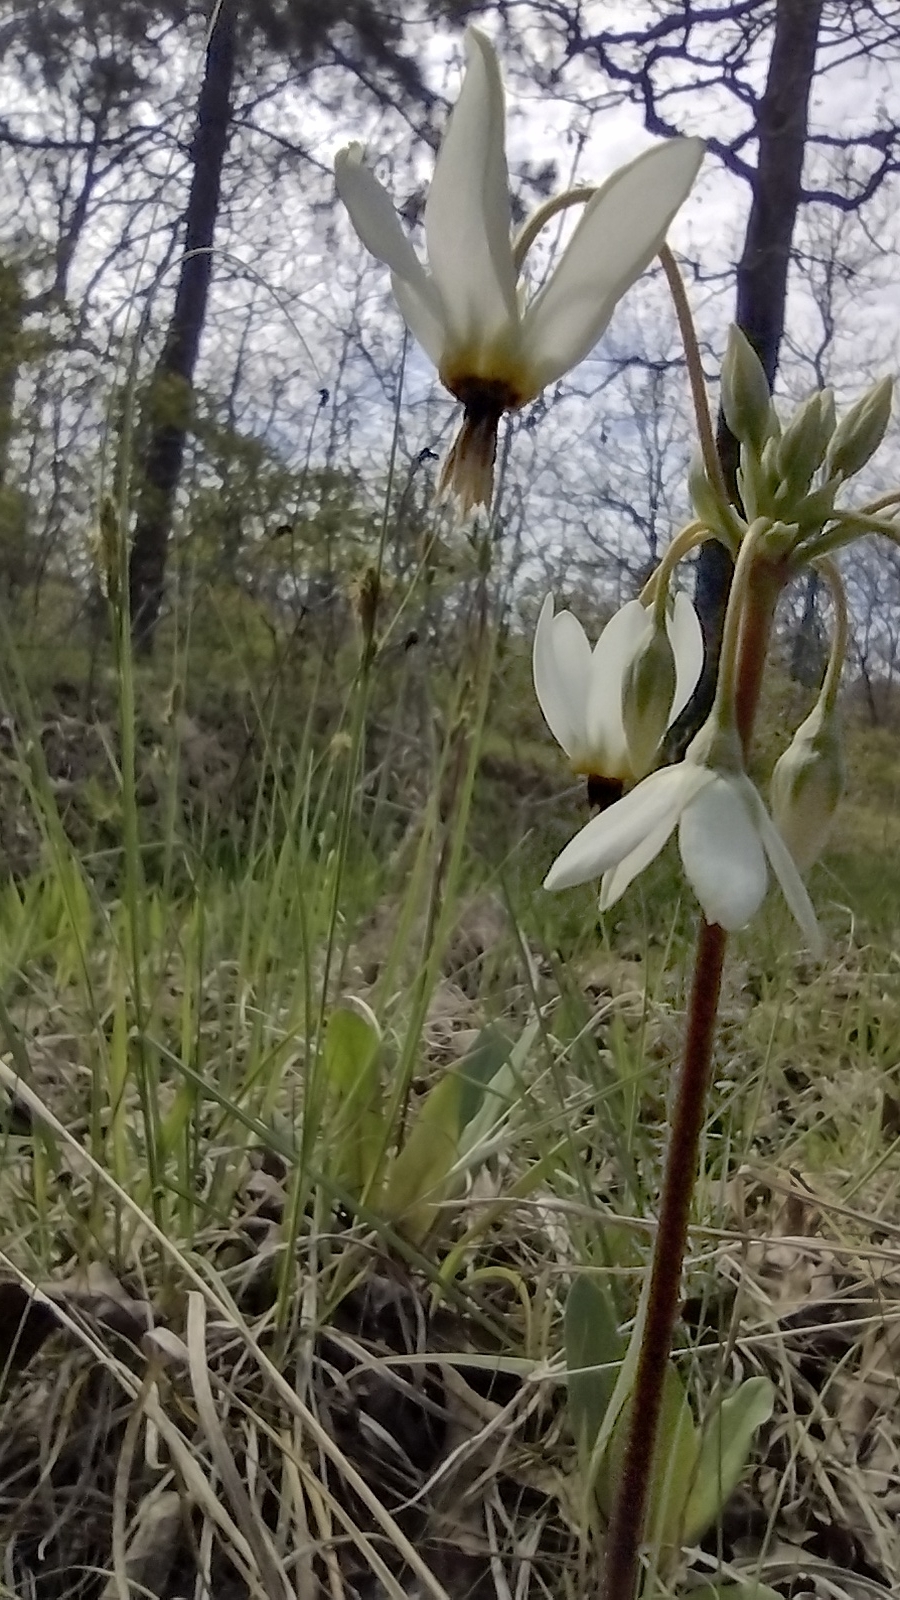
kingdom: Plantae
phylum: Tracheophyta
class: Magnoliopsida
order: Ericales
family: Primulaceae
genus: Dodecatheon
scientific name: Dodecatheon meadia
